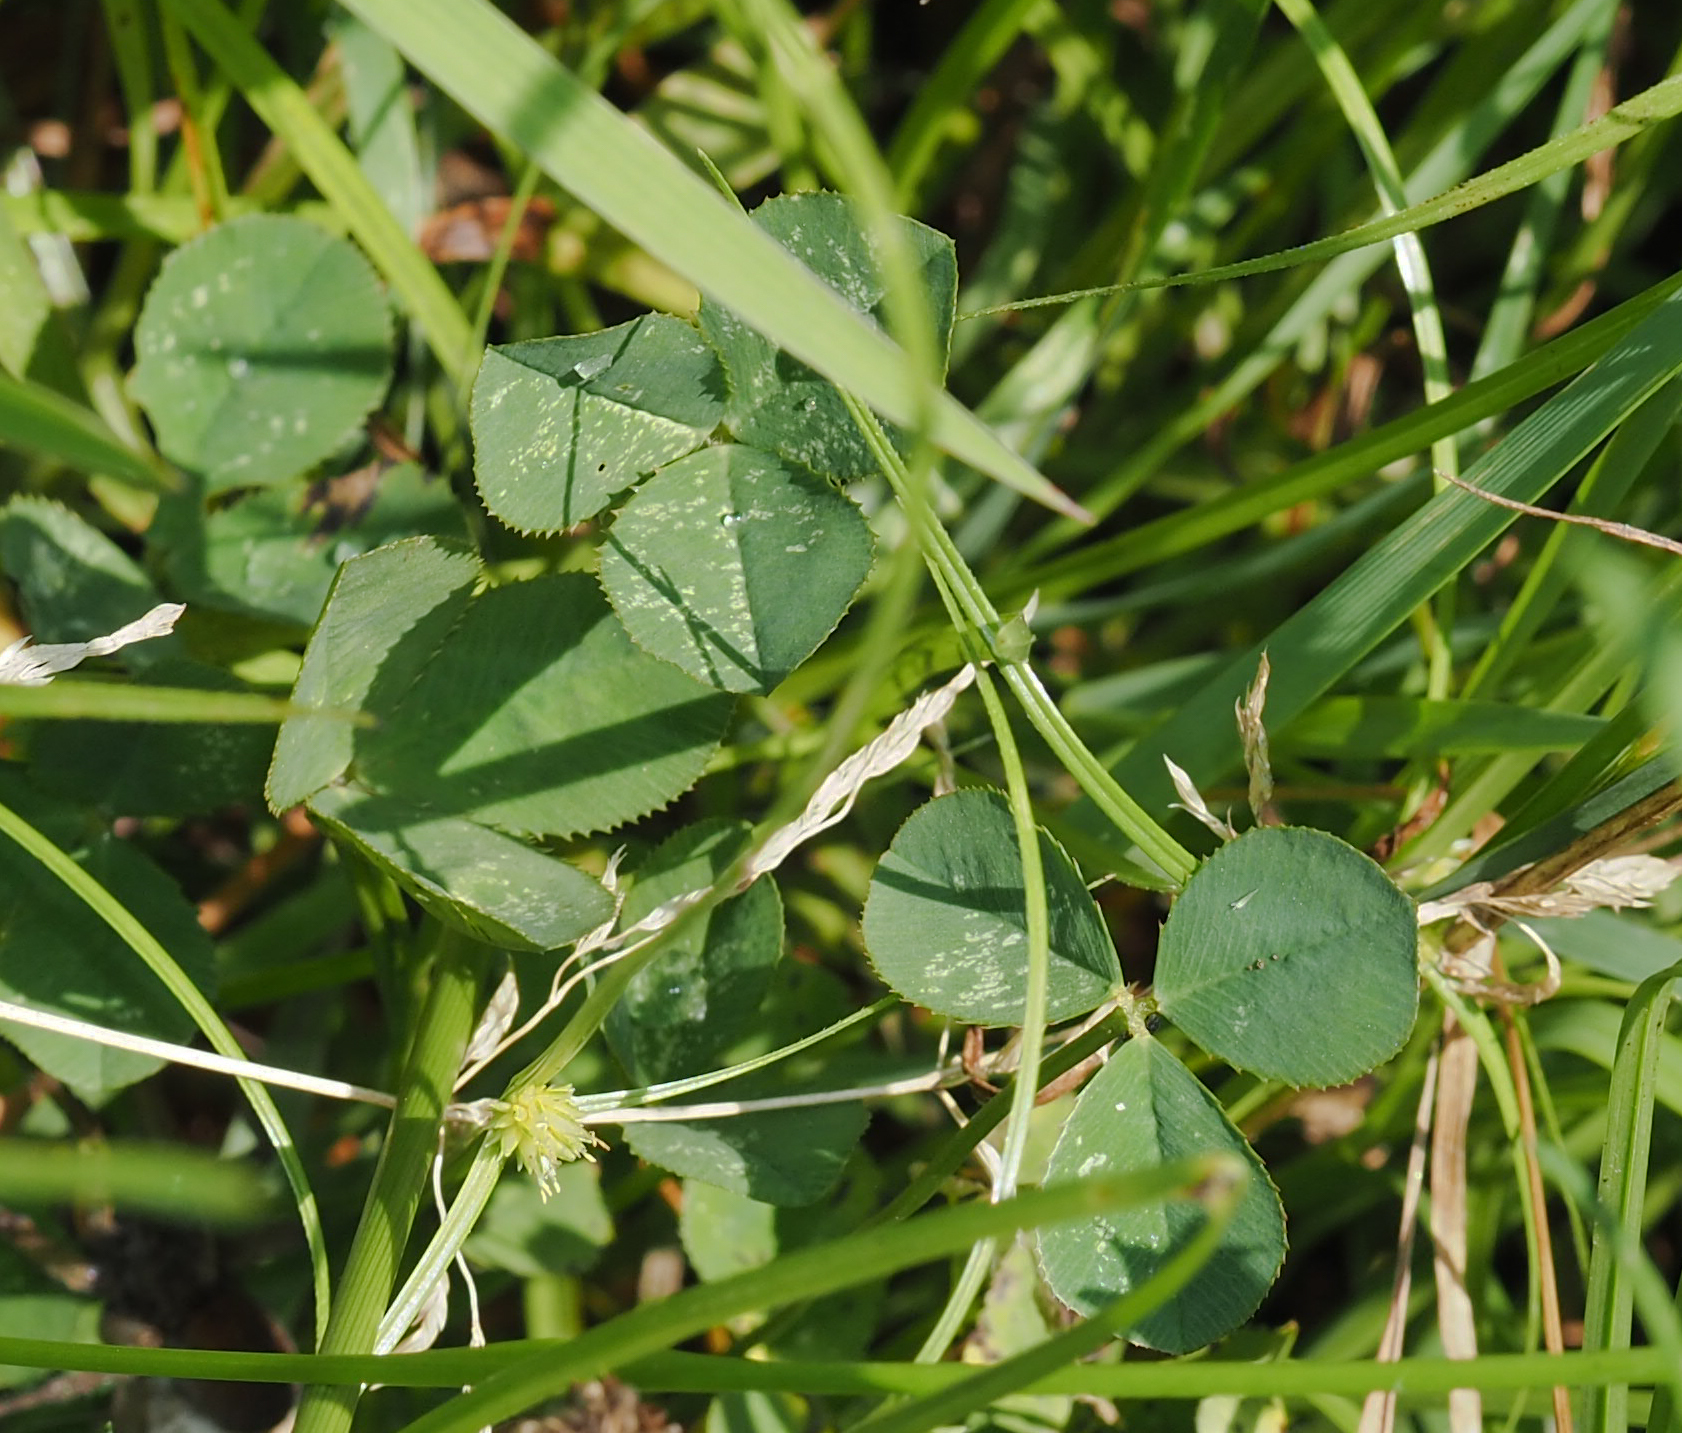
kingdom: Plantae
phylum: Tracheophyta
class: Magnoliopsida
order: Fabales
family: Fabaceae
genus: Trifolium
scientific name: Trifolium repens
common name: White clover
